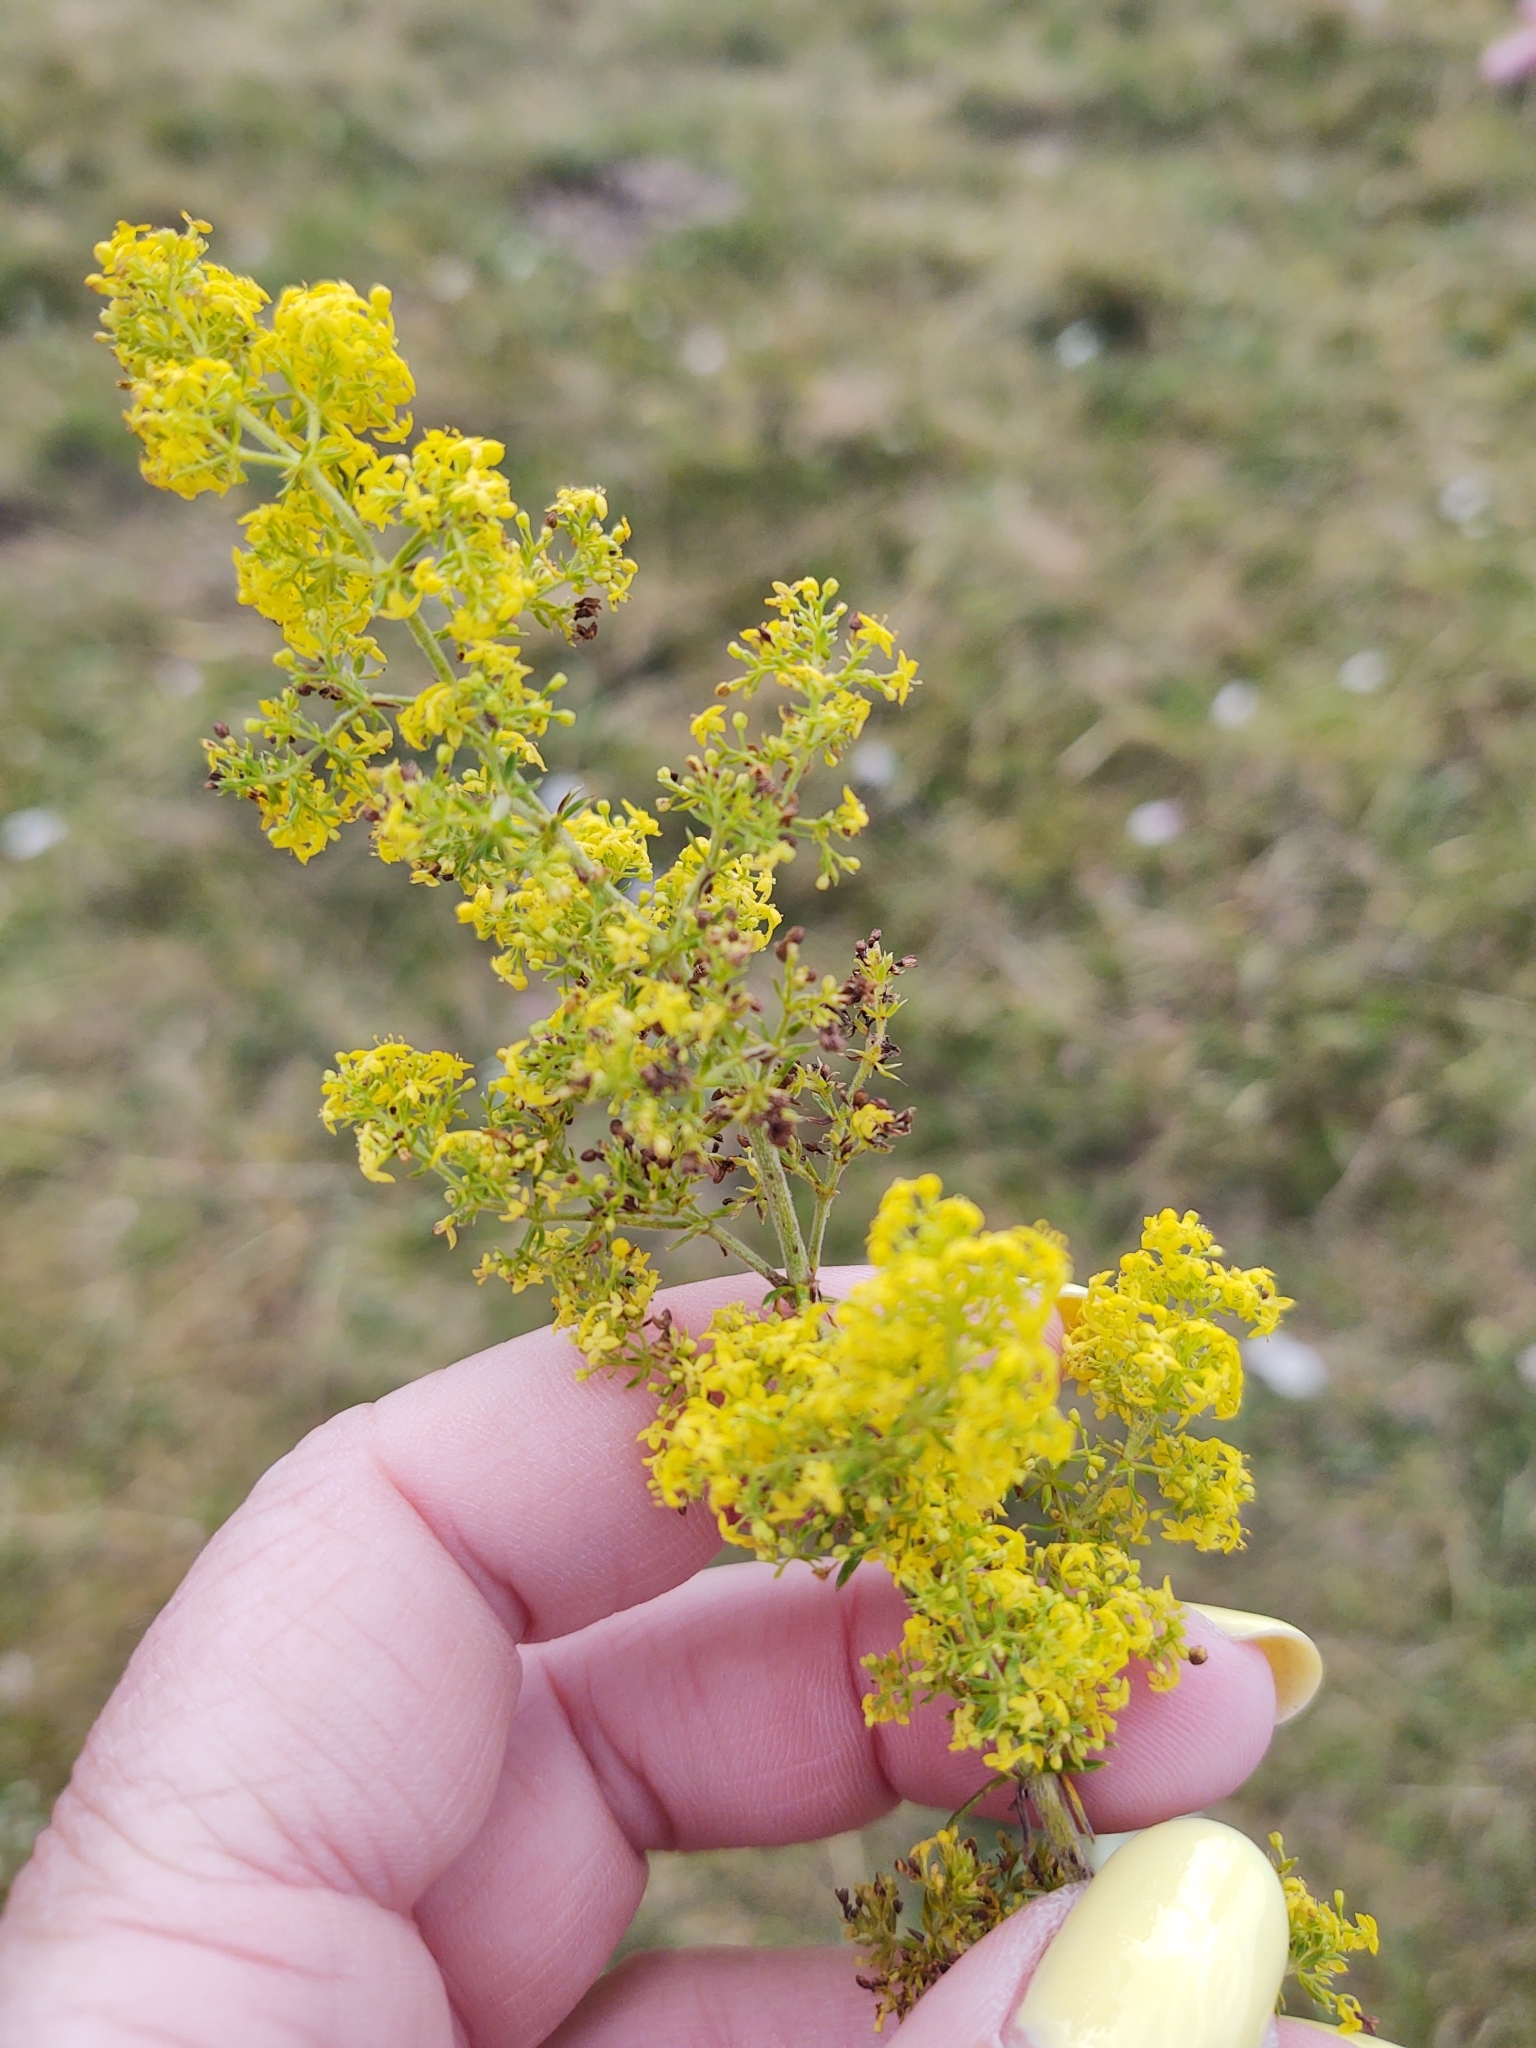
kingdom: Plantae
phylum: Tracheophyta
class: Magnoliopsida
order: Gentianales
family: Rubiaceae
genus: Galium
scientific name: Galium verum
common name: Lady's bedstraw
